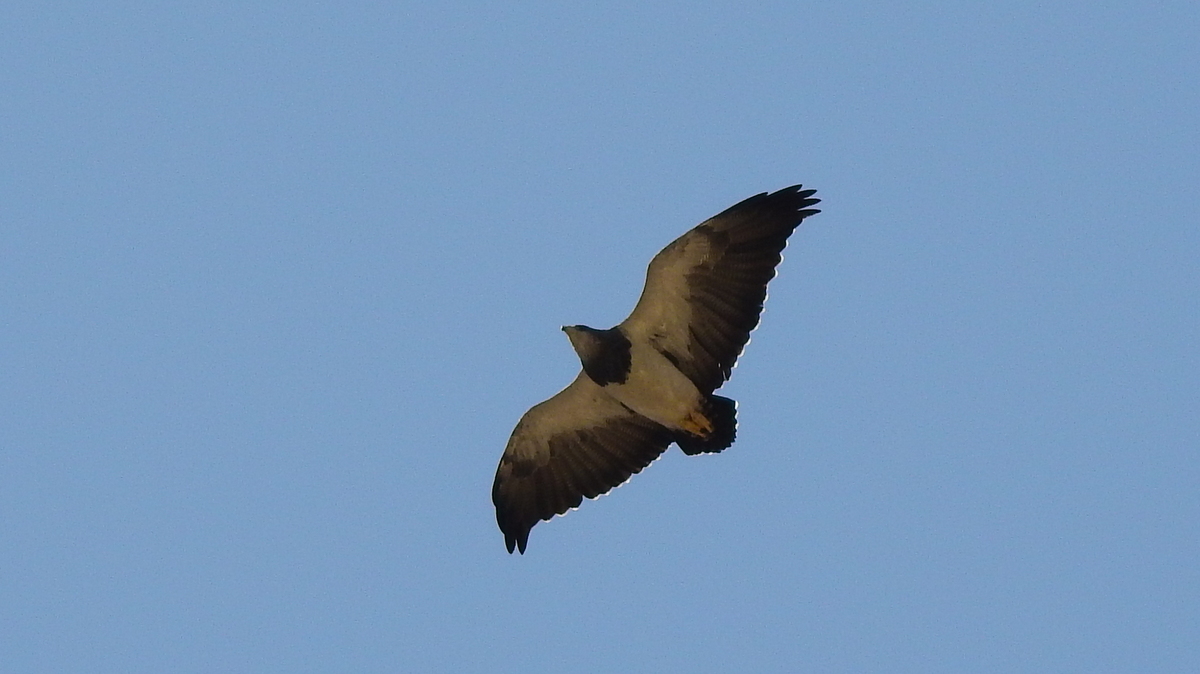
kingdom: Animalia
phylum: Chordata
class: Aves
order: Accipitriformes
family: Accipitridae
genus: Geranoaetus
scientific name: Geranoaetus melanoleucus
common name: Black-chested buzzard-eagle
